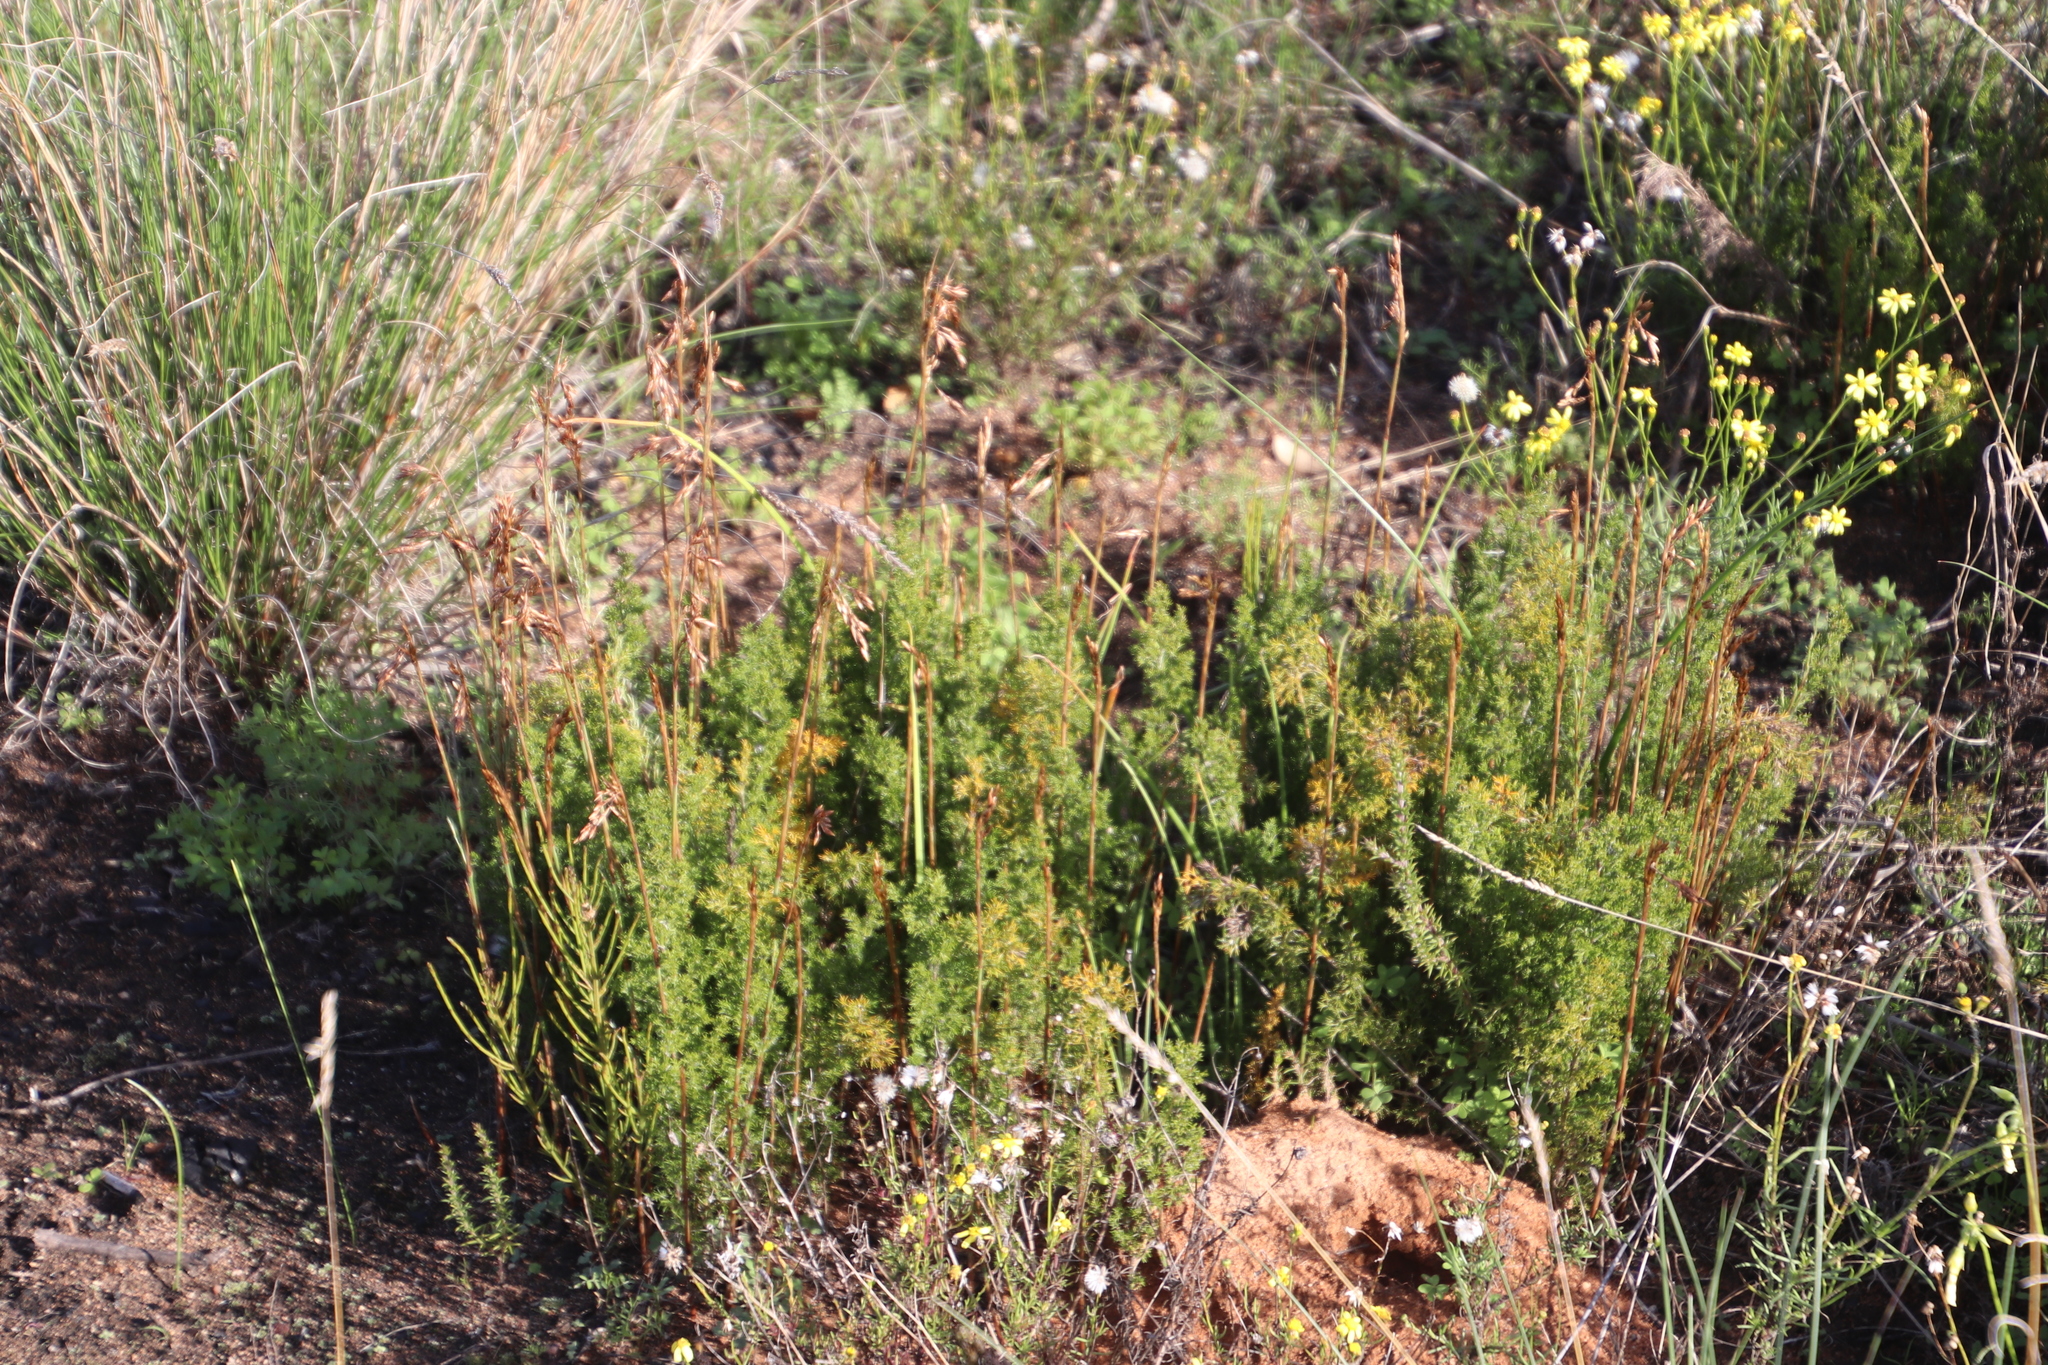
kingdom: Plantae
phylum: Tracheophyta
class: Liliopsida
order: Poales
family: Restionaceae
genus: Thamnochortus
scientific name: Thamnochortus fruticosus
